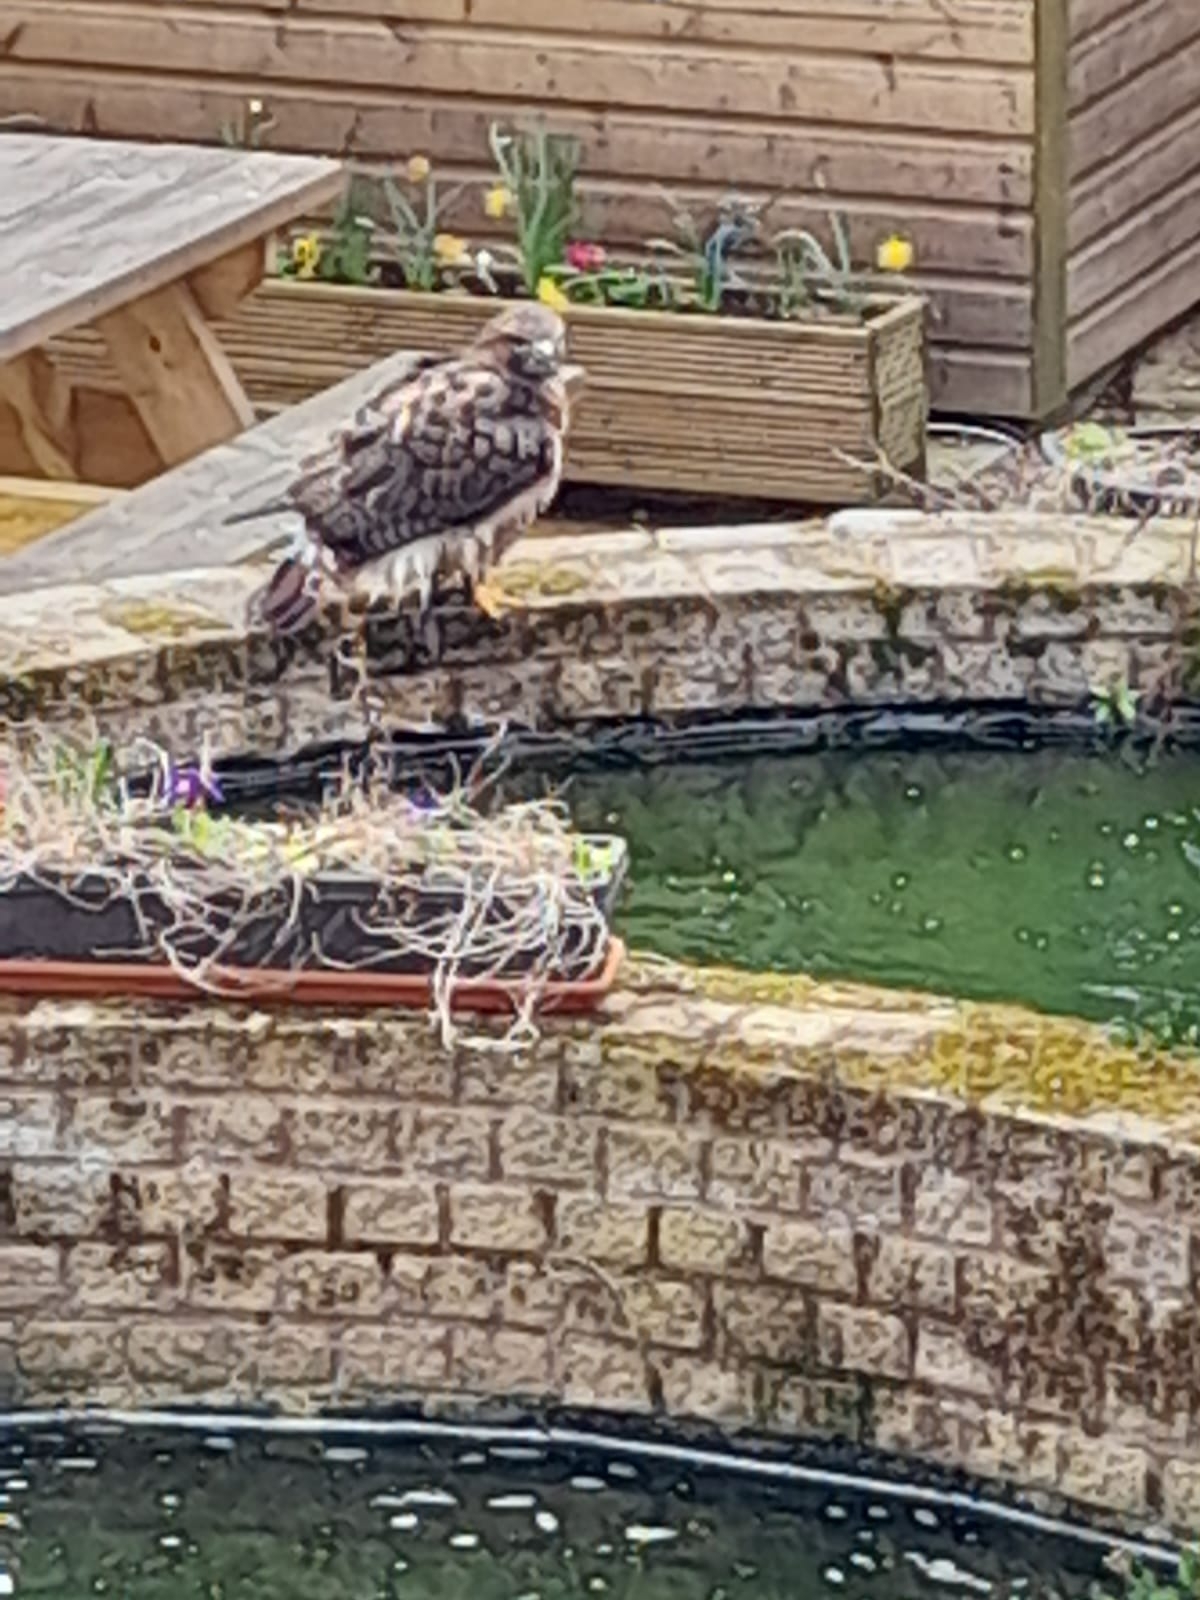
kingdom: Animalia
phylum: Chordata
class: Aves
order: Accipitriformes
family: Accipitridae
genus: Buteo
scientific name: Buteo buteo
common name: Common buzzard
